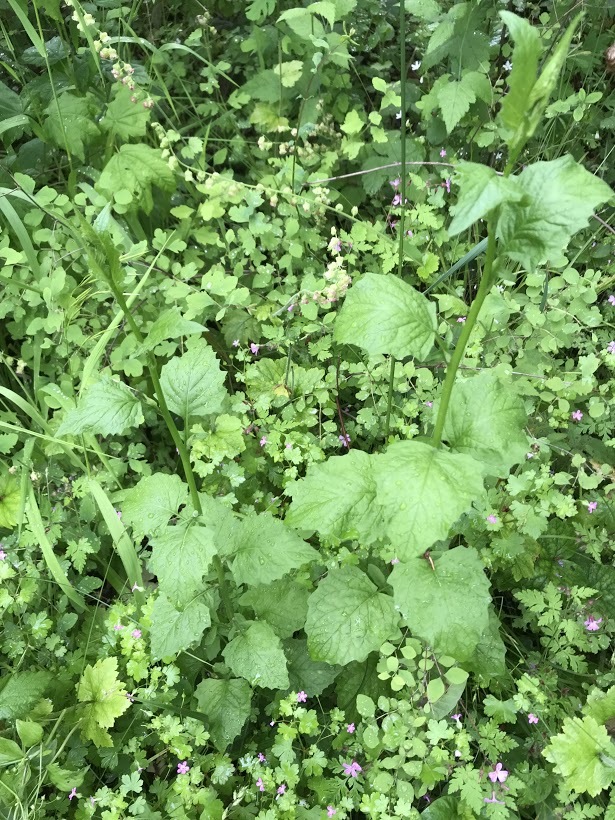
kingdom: Plantae
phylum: Tracheophyta
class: Magnoliopsida
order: Asterales
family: Asteraceae
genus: Lapsana
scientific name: Lapsana communis
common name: Nipplewort
